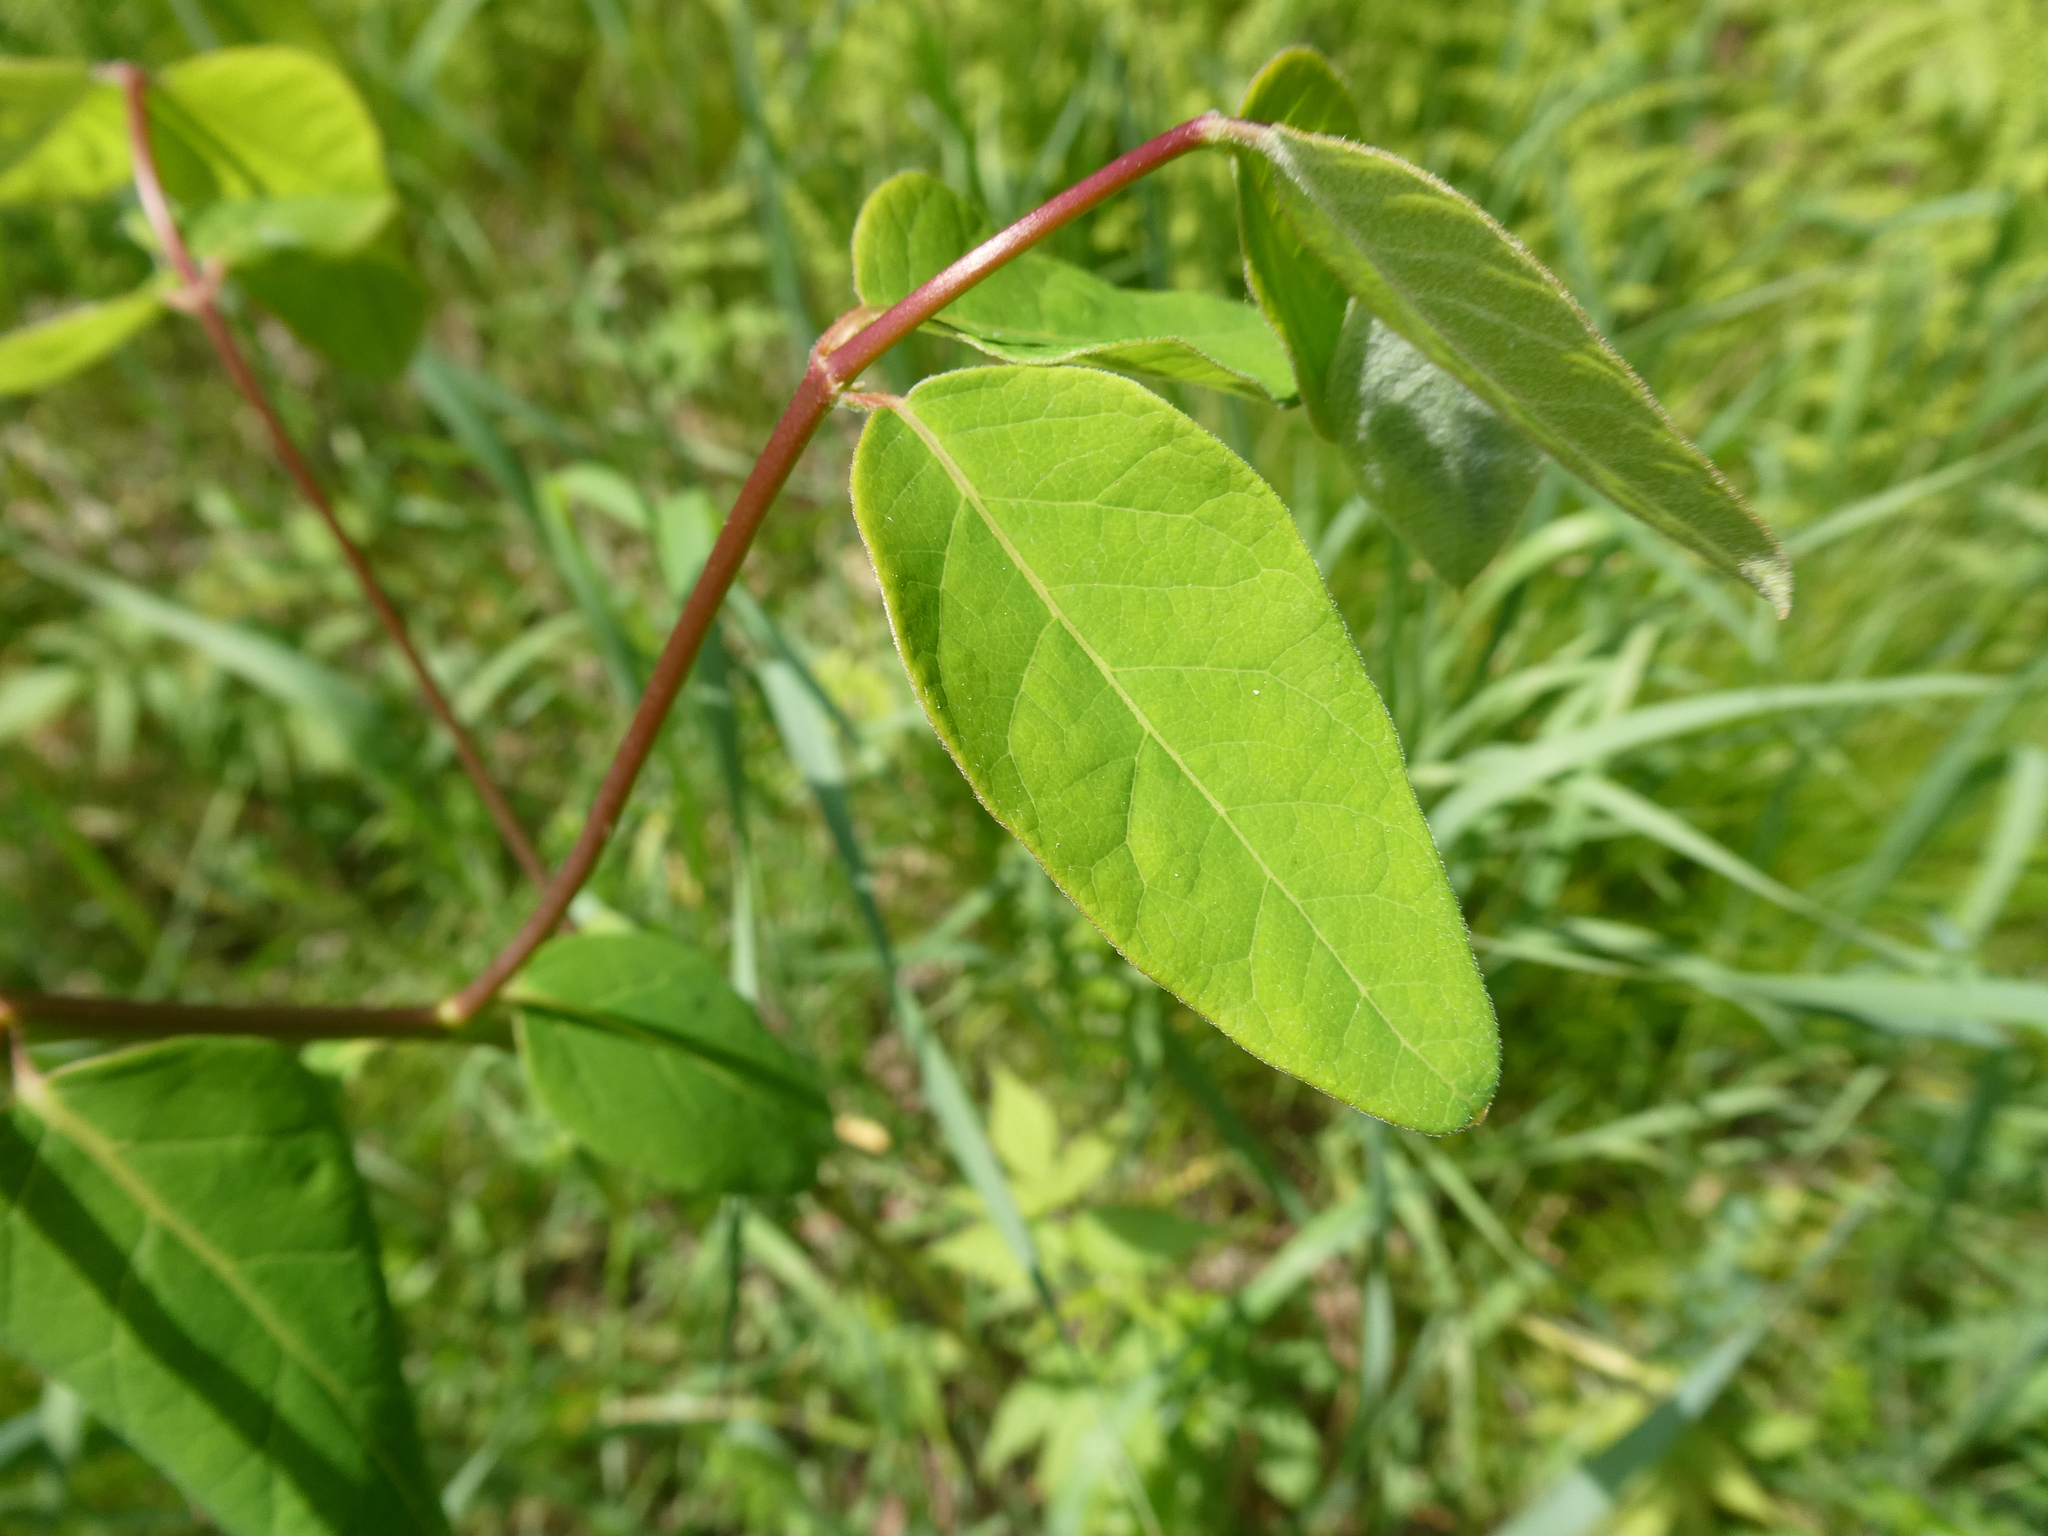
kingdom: Plantae
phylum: Tracheophyta
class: Magnoliopsida
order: Gentianales
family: Apocynaceae
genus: Apocynum
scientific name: Apocynum androsaemifolium
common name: Spreading dogbane
